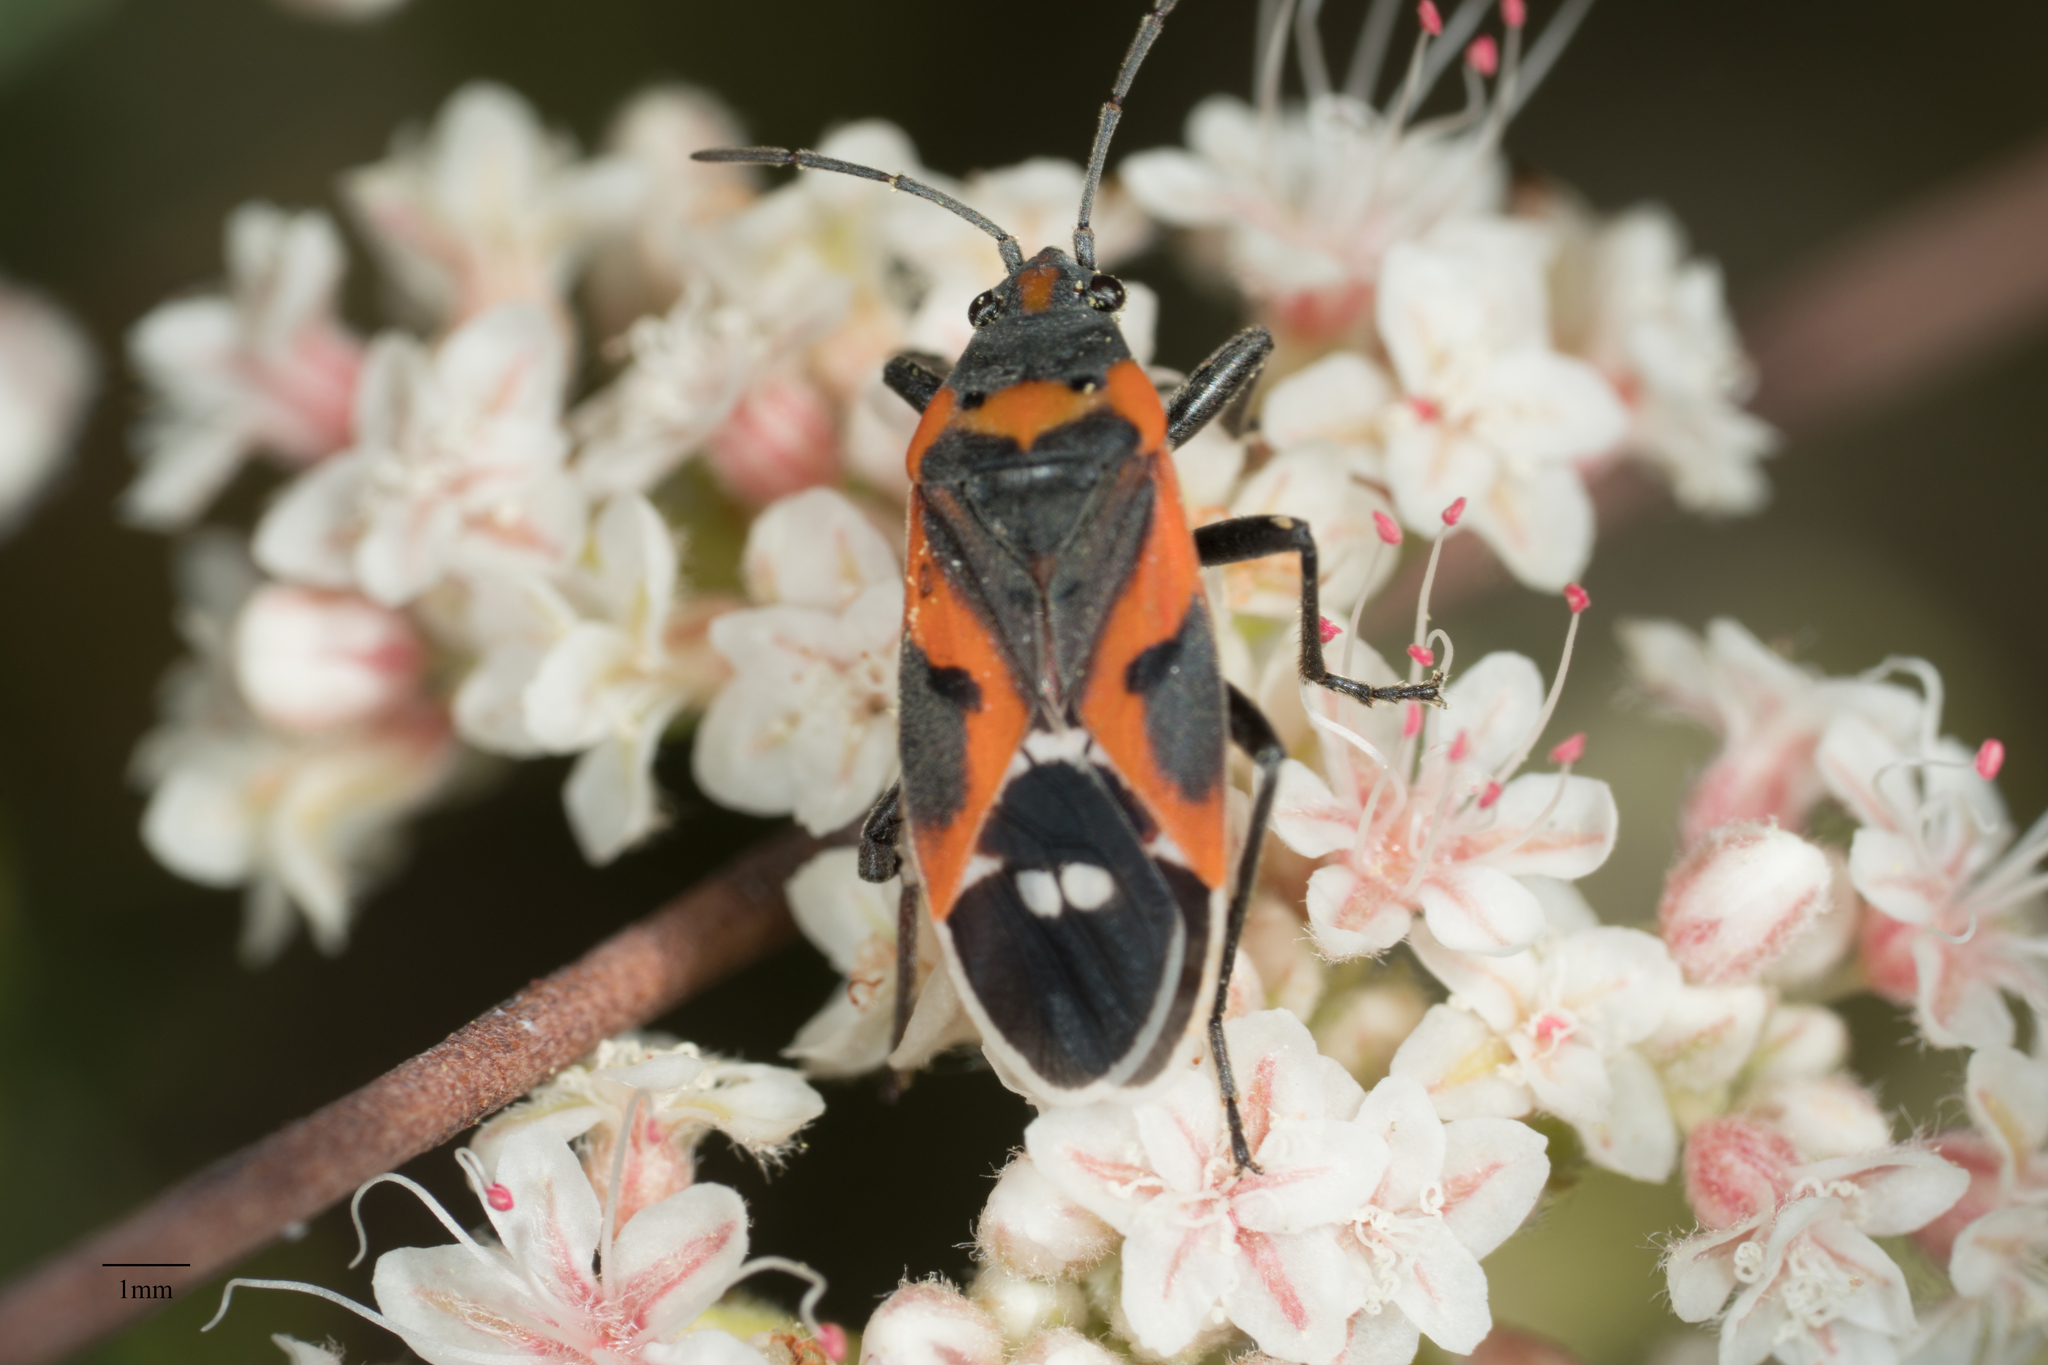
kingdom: Animalia
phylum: Arthropoda
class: Insecta
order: Hemiptera
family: Lygaeidae
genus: Lygaeus
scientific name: Lygaeus kalmii
